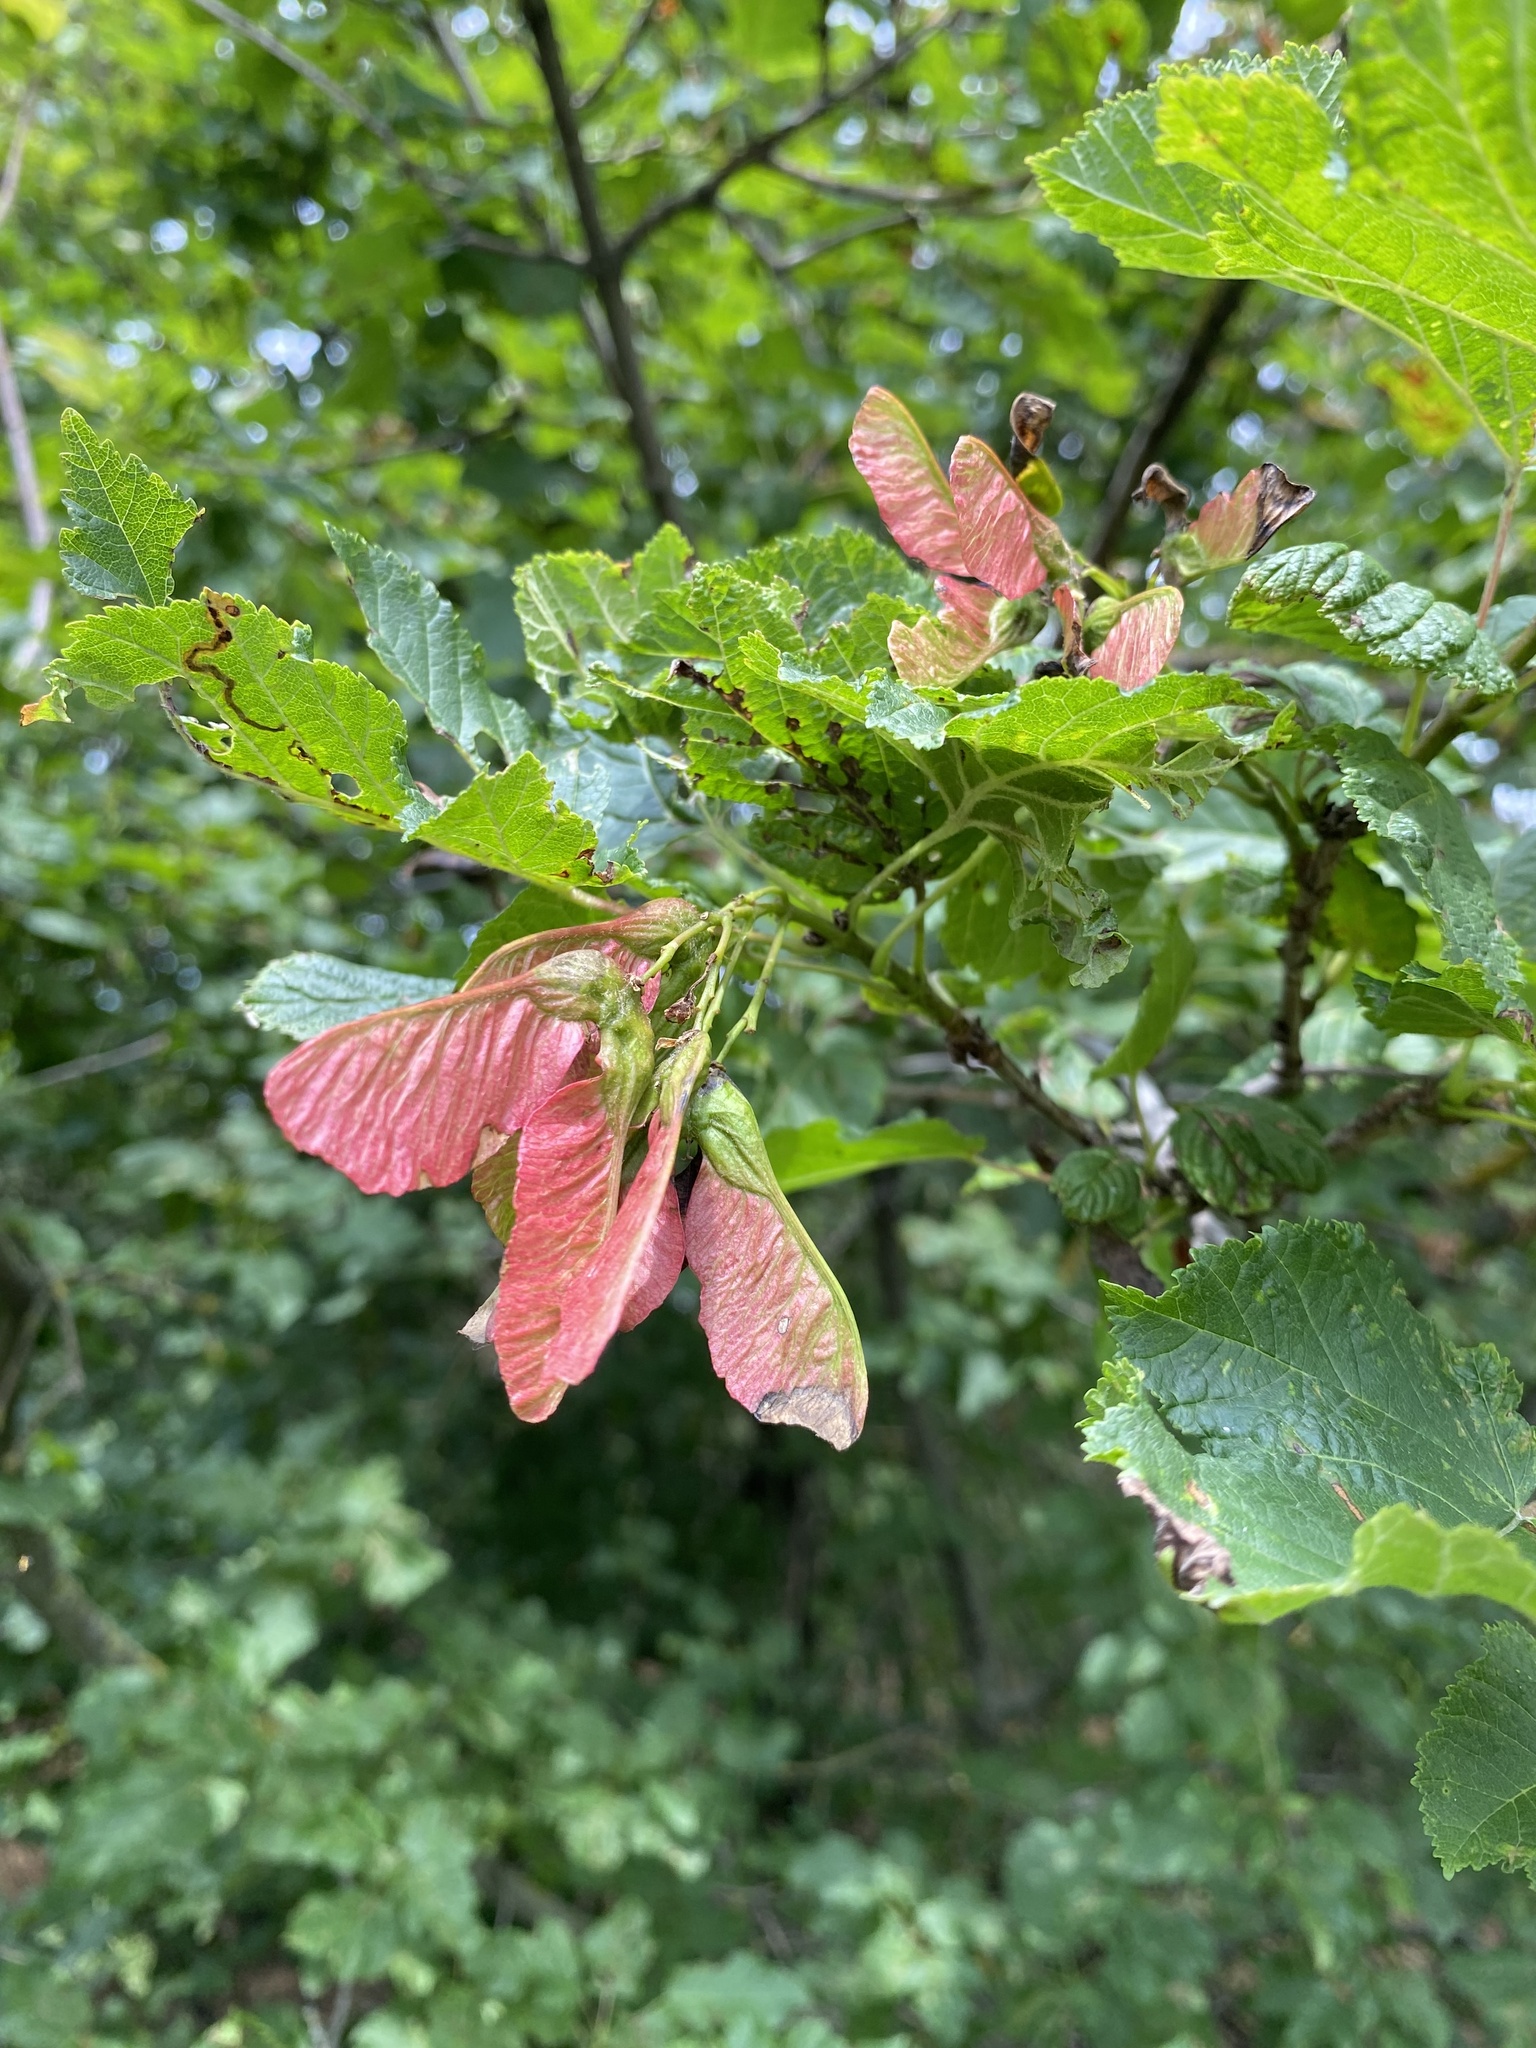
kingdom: Plantae
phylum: Tracheophyta
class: Magnoliopsida
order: Sapindales
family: Sapindaceae
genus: Acer
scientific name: Acer tataricum
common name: Tartar maple
